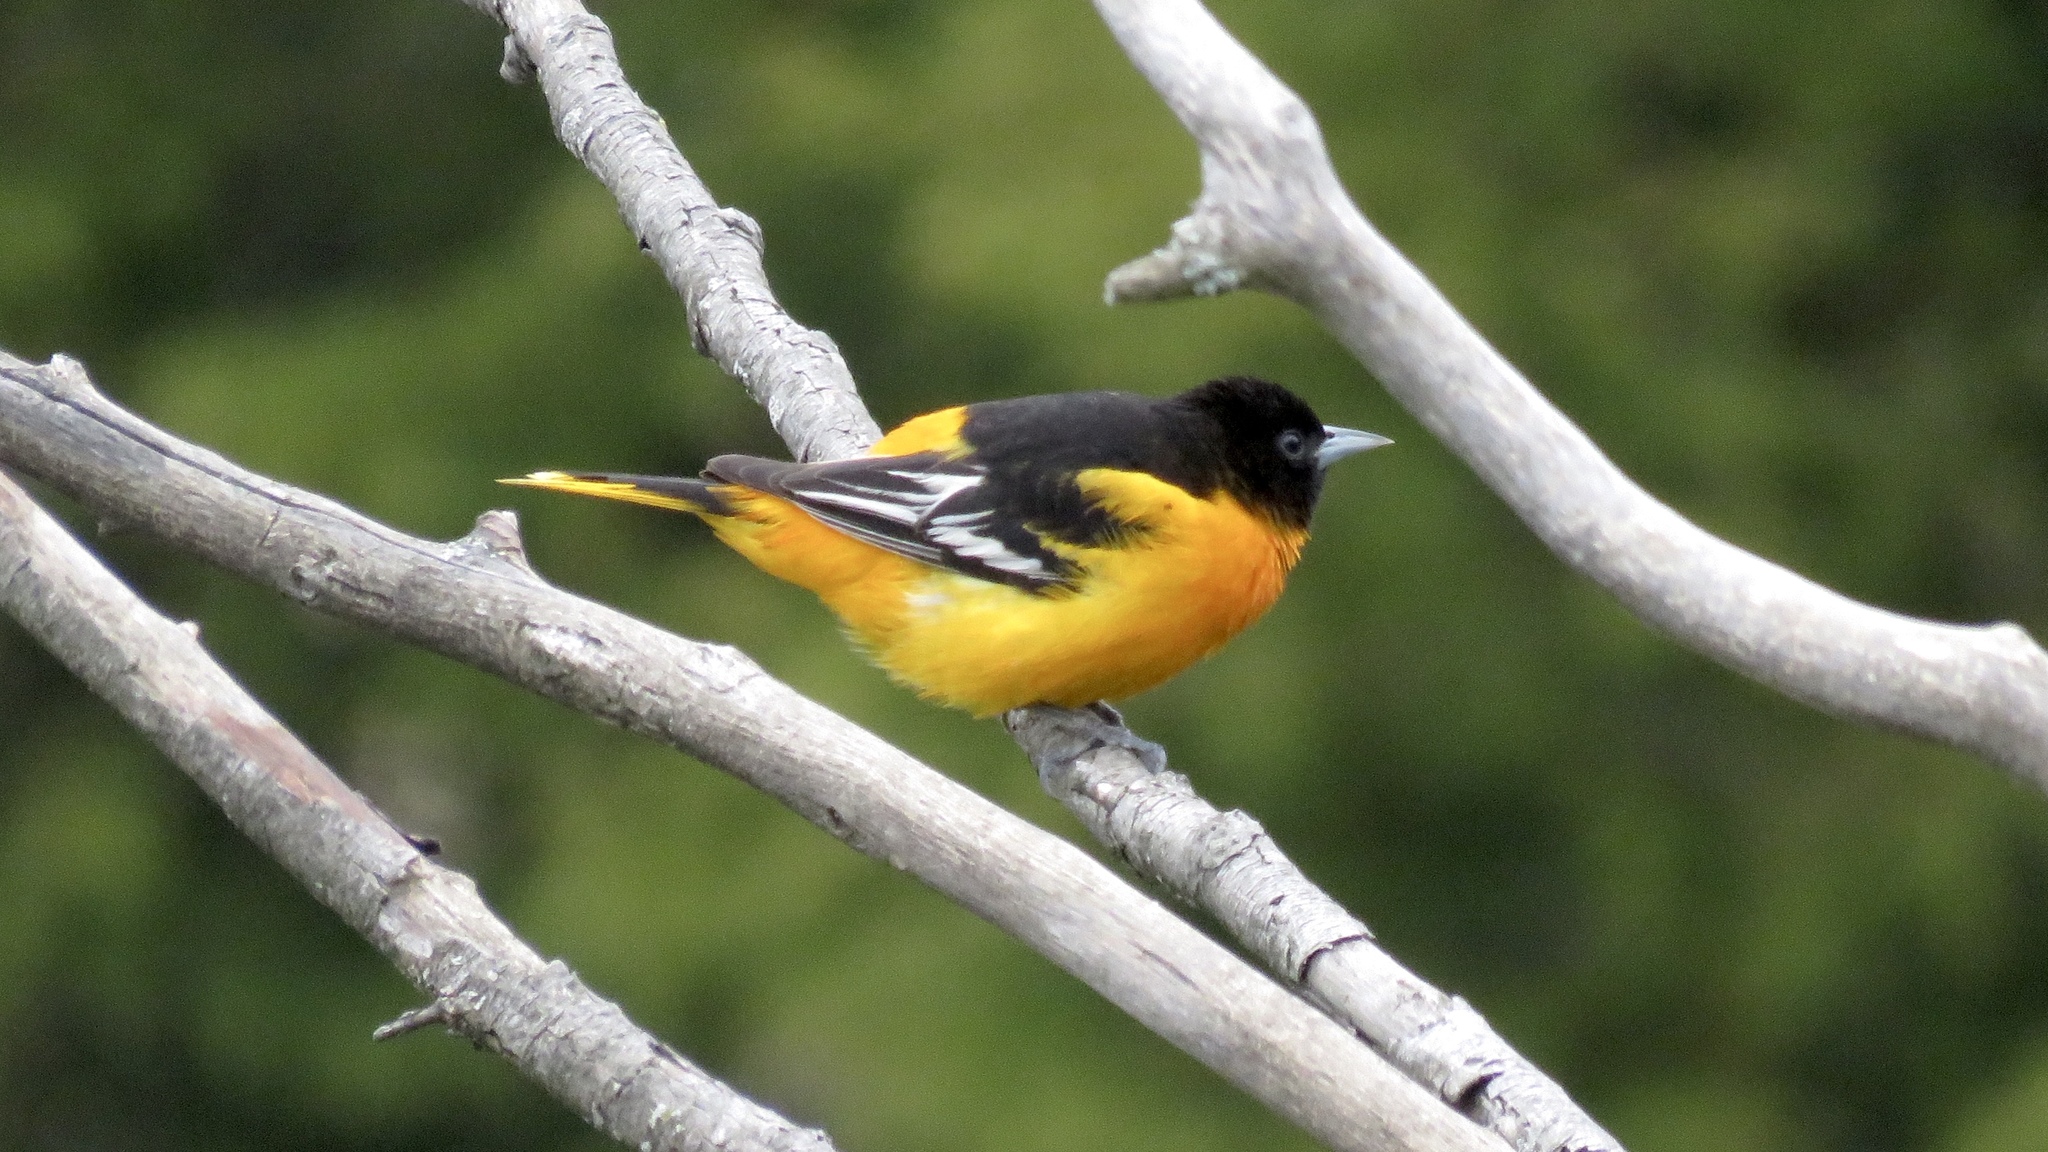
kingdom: Animalia
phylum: Chordata
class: Aves
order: Passeriformes
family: Icteridae
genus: Icterus
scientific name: Icterus galbula
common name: Baltimore oriole
